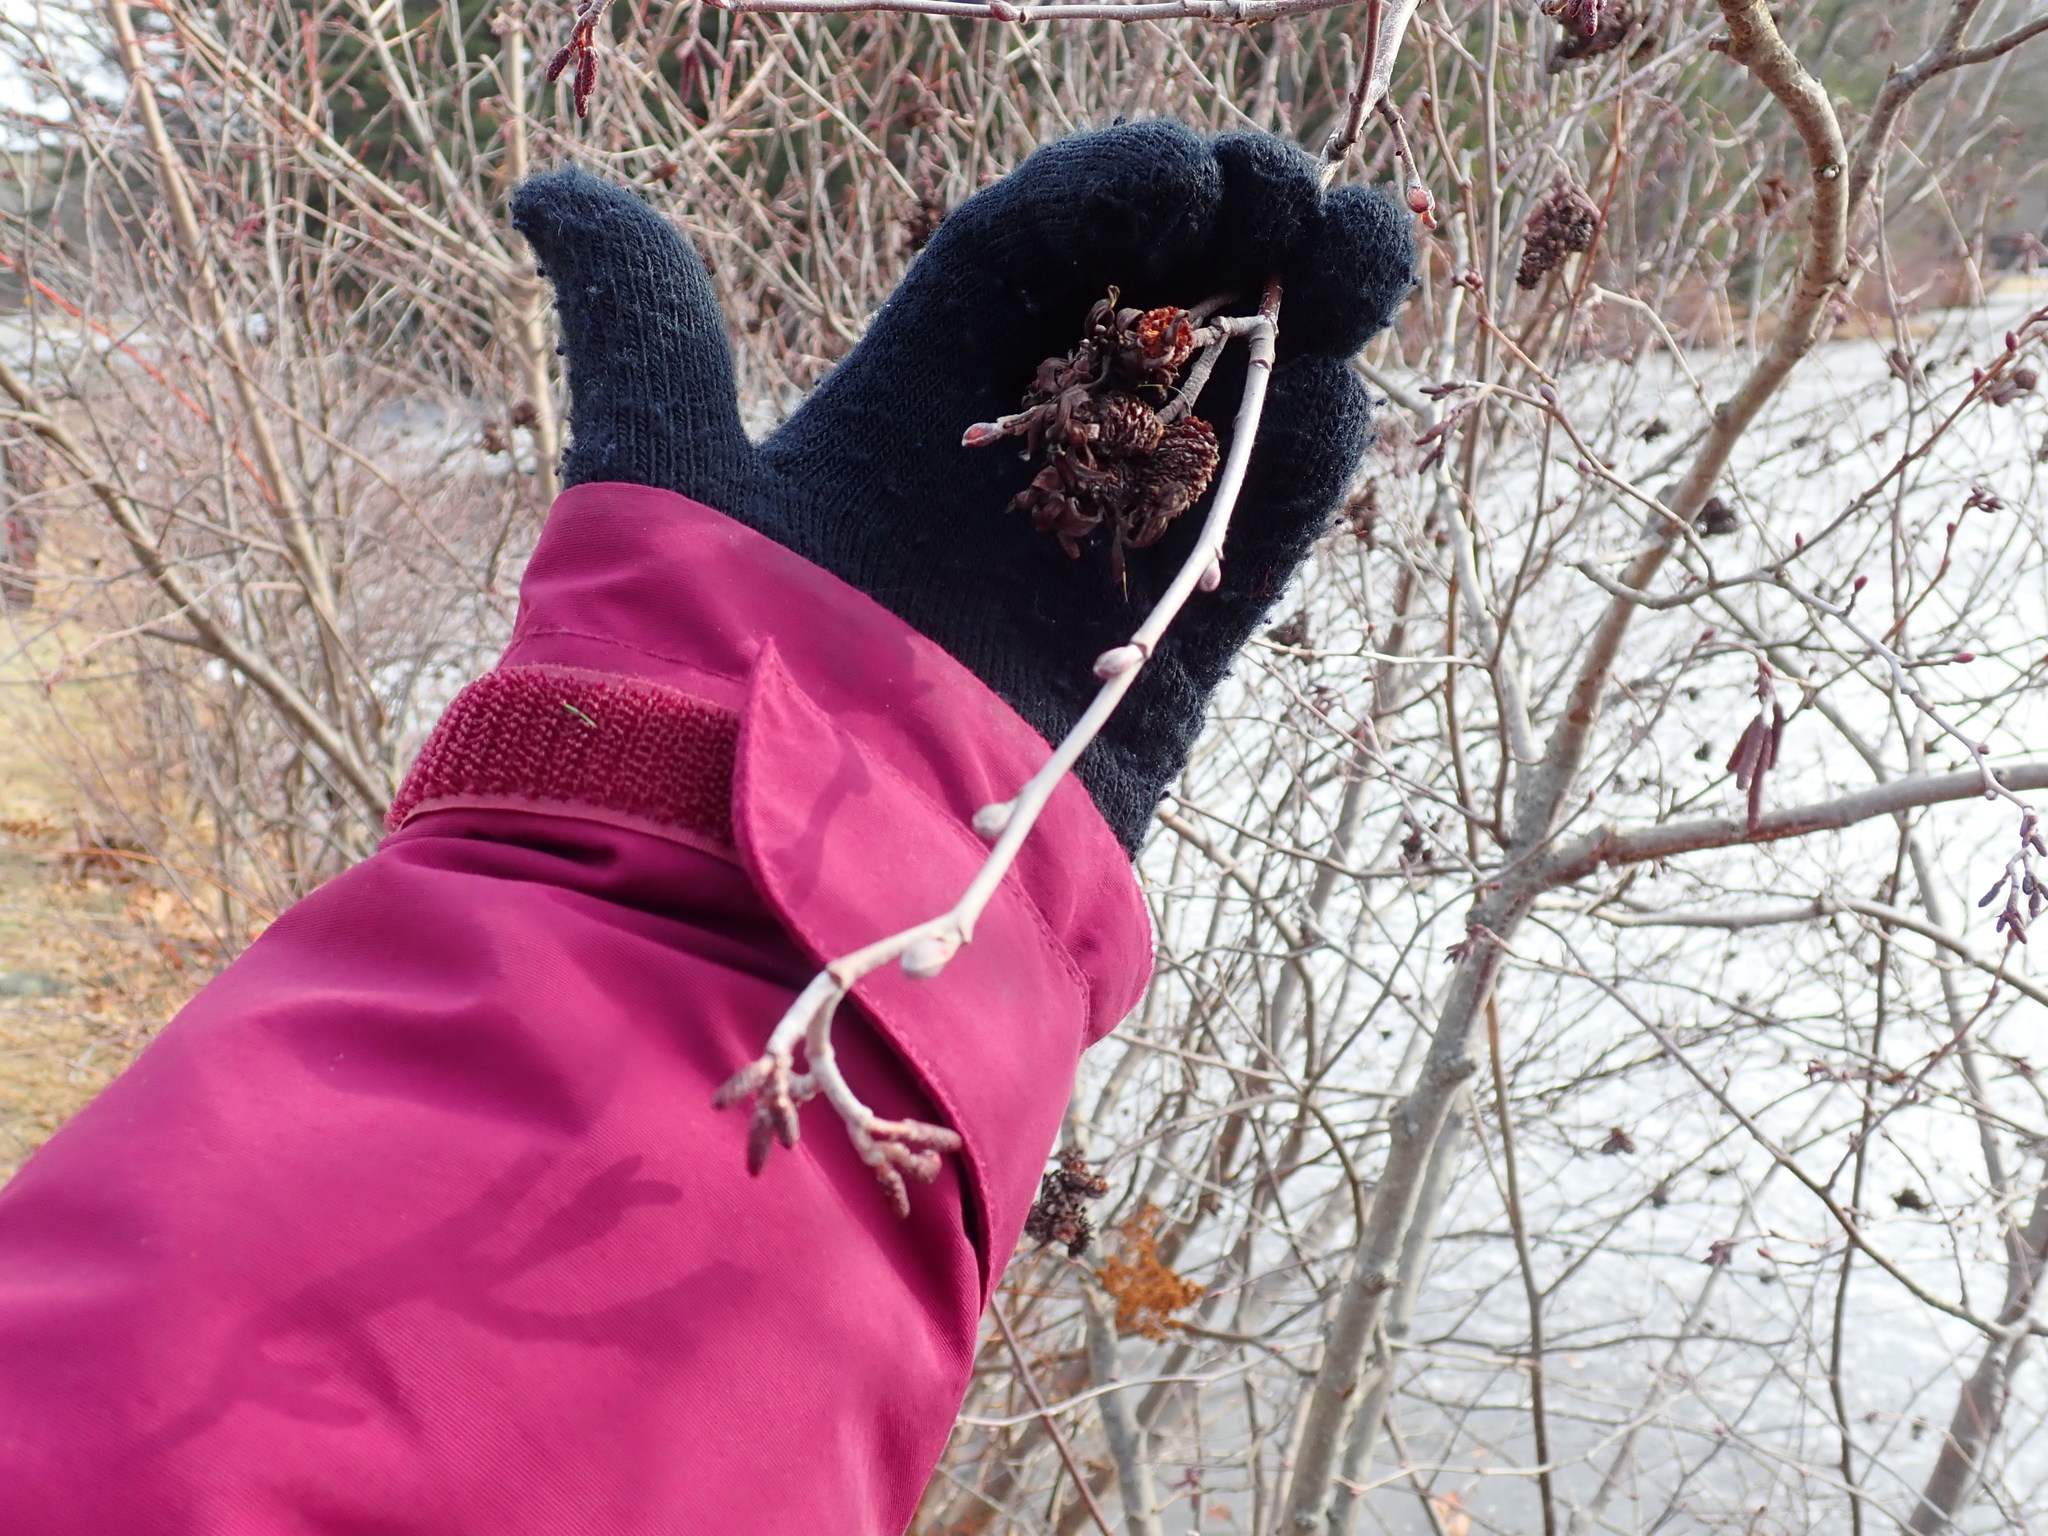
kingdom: Fungi
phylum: Ascomycota
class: Taphrinomycetes
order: Taphrinales
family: Taphrinaceae
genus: Taphrina
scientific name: Taphrina robinsoniana
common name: Eastern american alder tongue gall fungus
